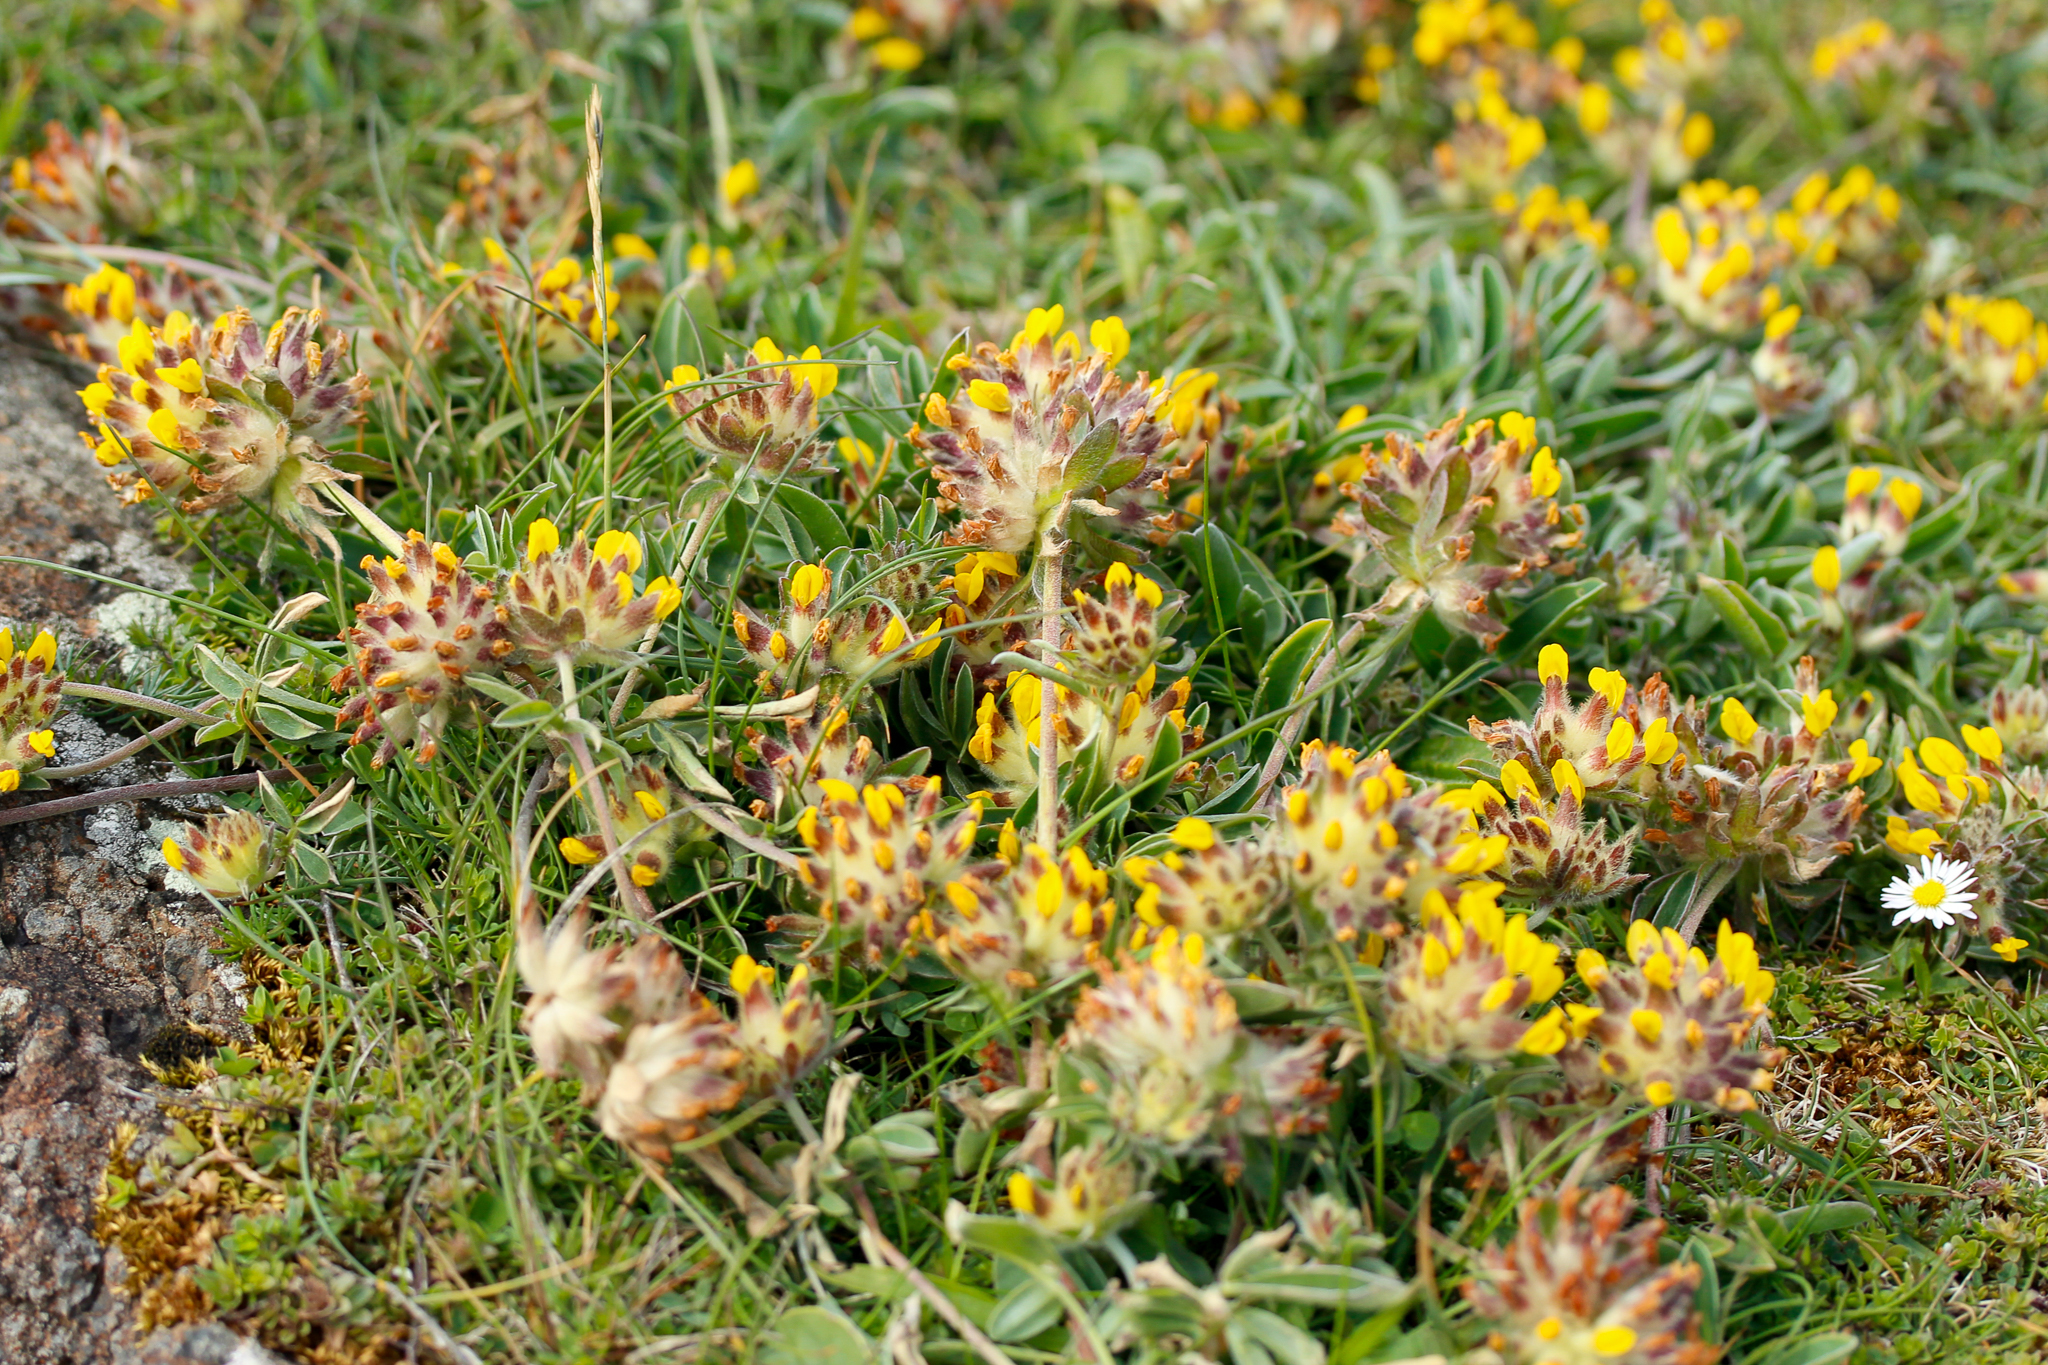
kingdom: Plantae
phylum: Tracheophyta
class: Magnoliopsida
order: Fabales
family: Fabaceae
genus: Anthyllis
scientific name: Anthyllis vulneraria
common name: Kidney vetch
